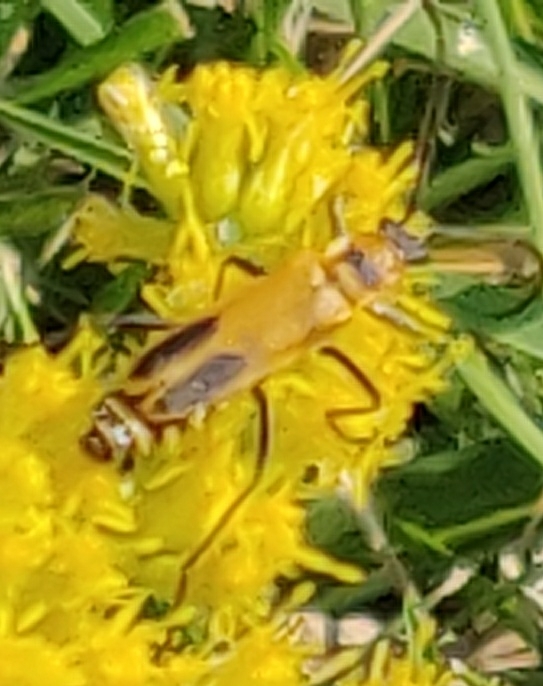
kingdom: Animalia
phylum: Arthropoda
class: Insecta
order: Coleoptera
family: Cantharidae
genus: Chauliognathus
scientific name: Chauliognathus pensylvanicus
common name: Goldenrod soldier beetle
